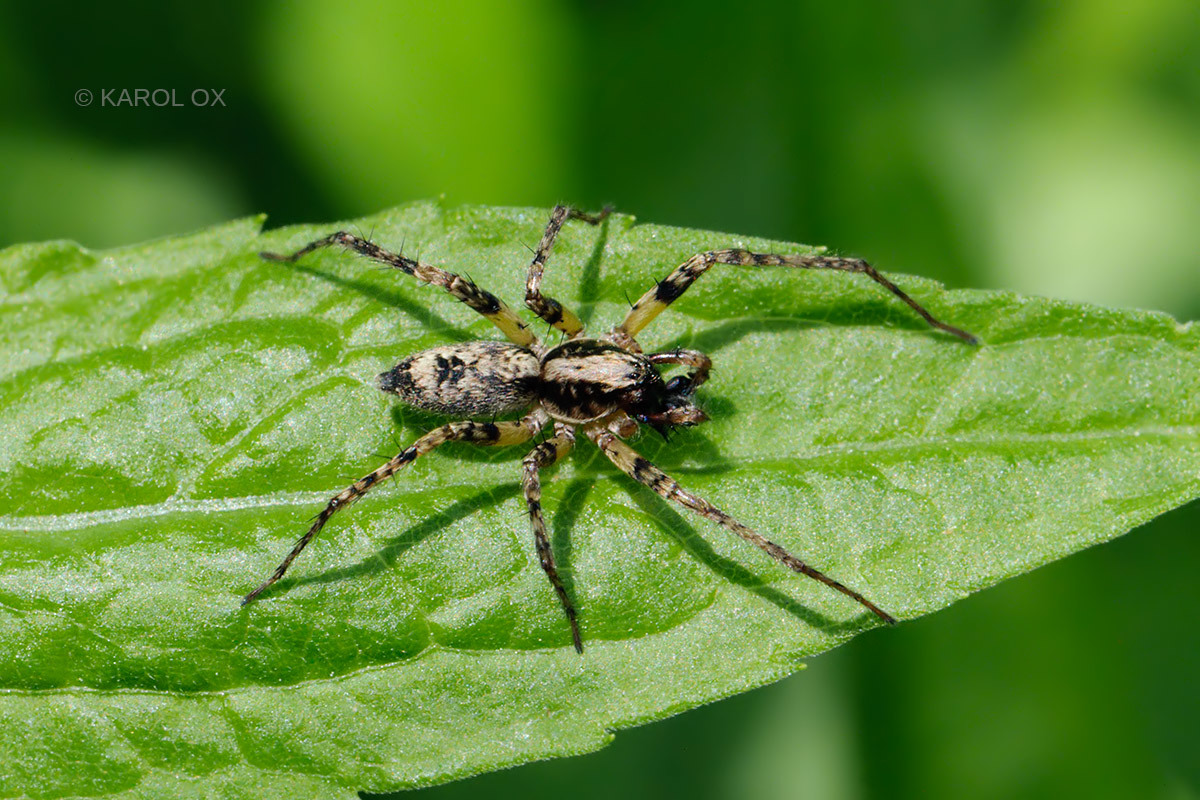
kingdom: Animalia
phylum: Arthropoda
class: Arachnida
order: Araneae
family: Anyphaenidae
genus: Anyphaena
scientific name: Anyphaena accentuata
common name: Buzzing spider
